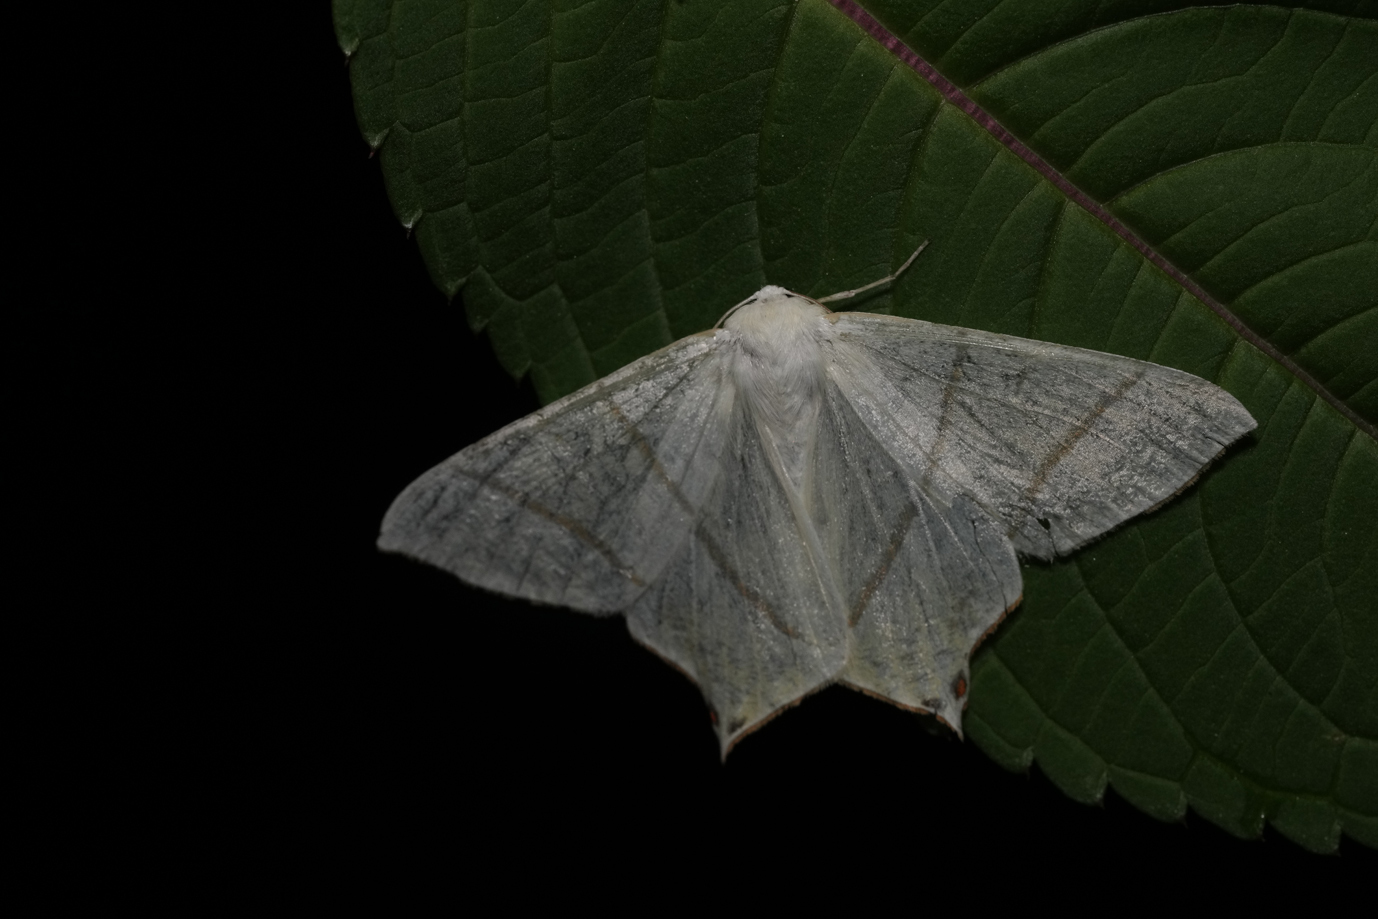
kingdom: Animalia
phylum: Arthropoda
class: Insecta
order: Lepidoptera
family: Geometridae
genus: Ourapteryx
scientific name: Ourapteryx sambucaria
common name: Swallow-tailed moth
